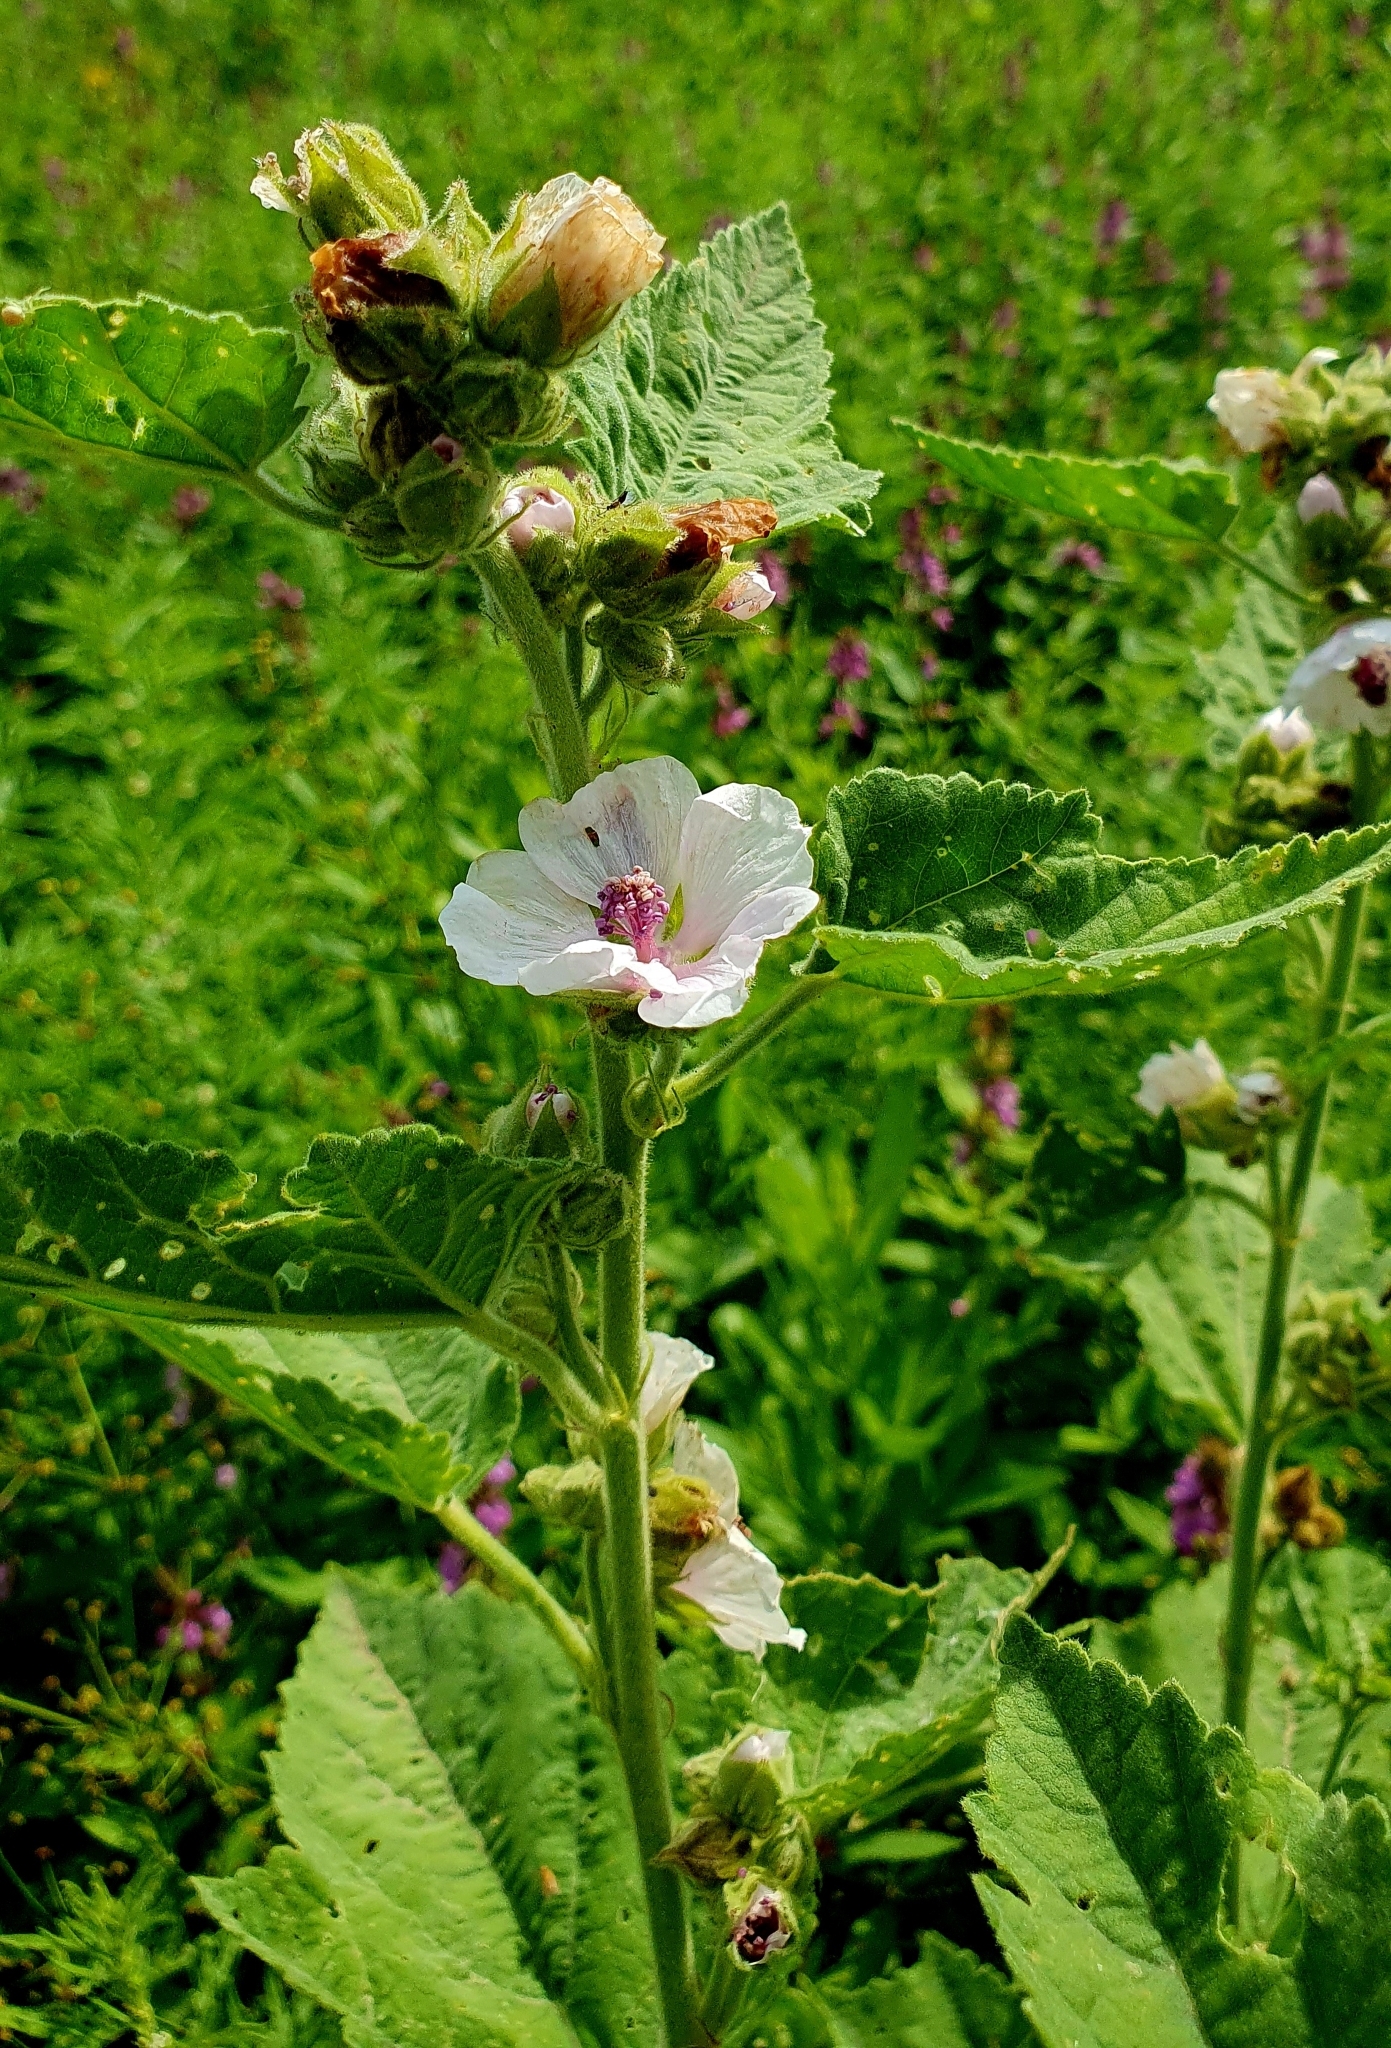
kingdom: Plantae
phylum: Tracheophyta
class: Magnoliopsida
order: Malvales
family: Malvaceae
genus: Althaea
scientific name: Althaea officinalis
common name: Marsh-mallow
